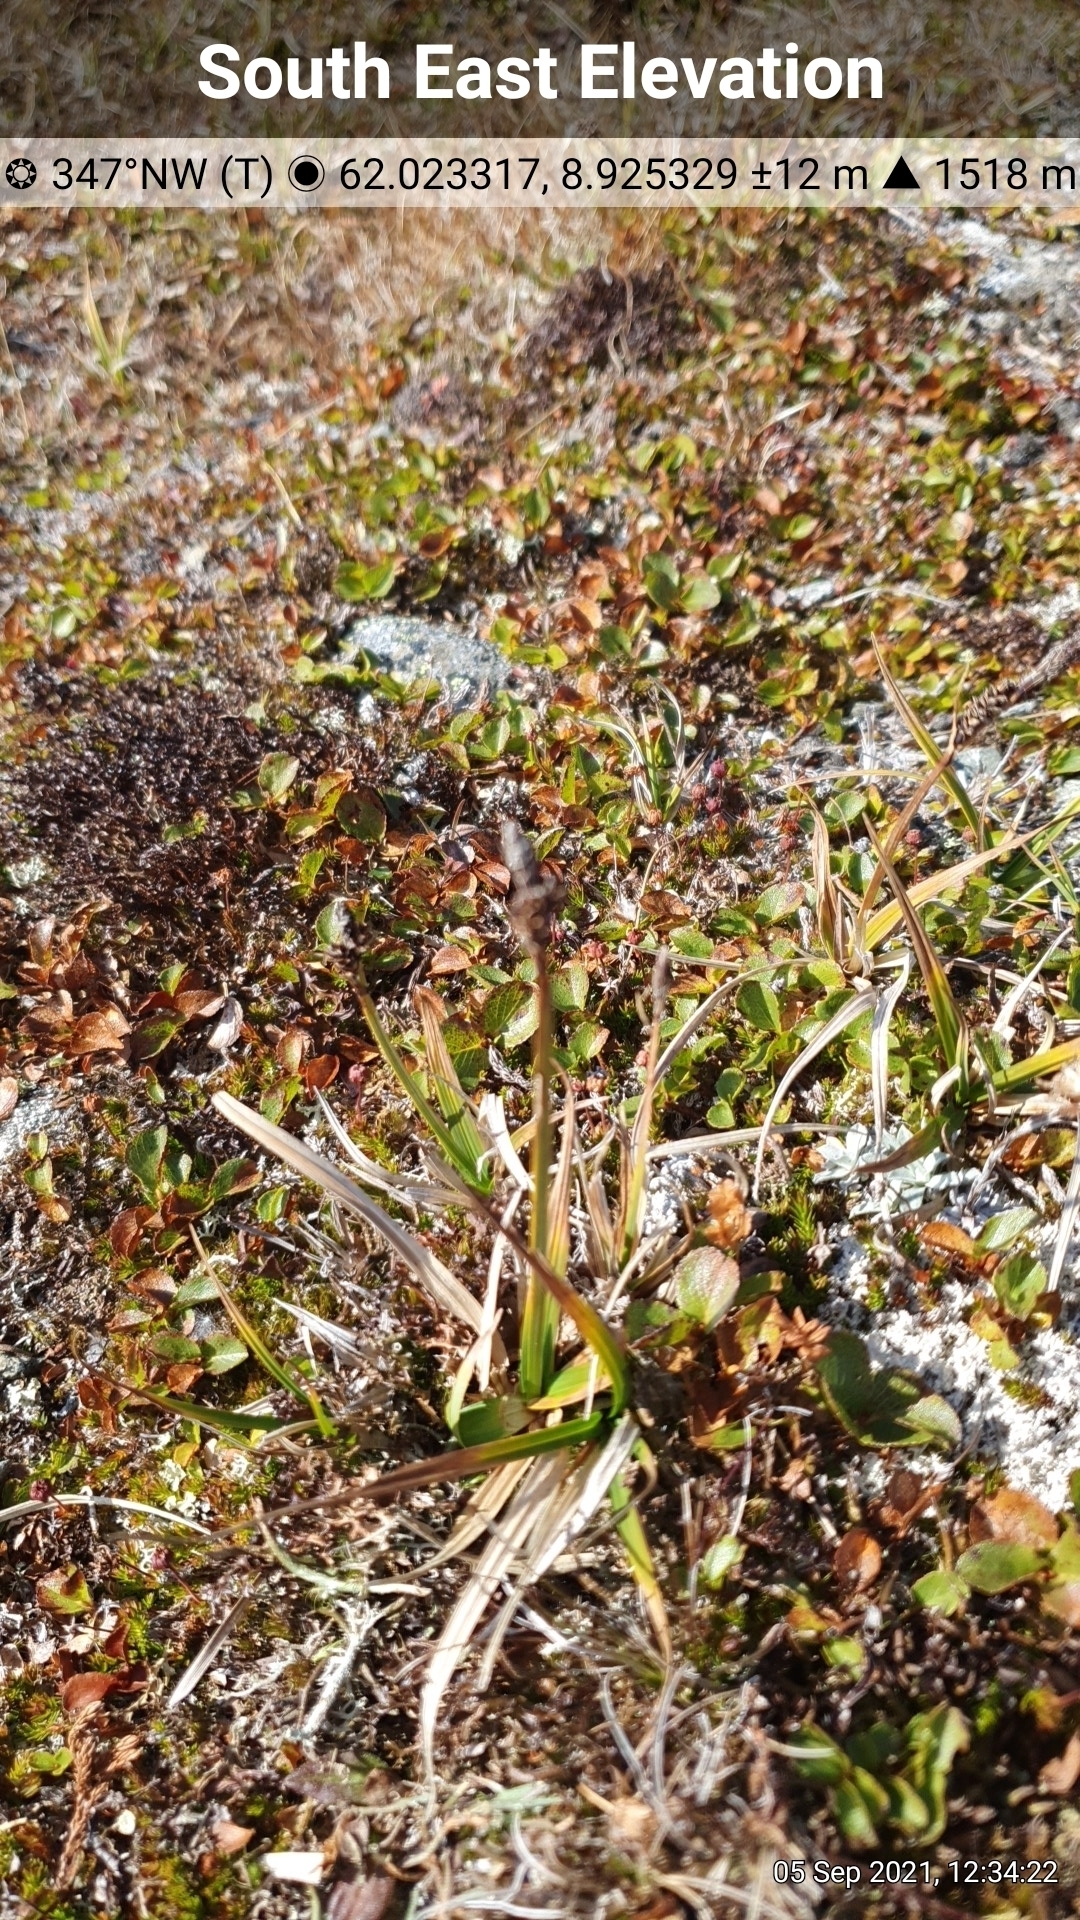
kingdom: Plantae
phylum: Tracheophyta
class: Liliopsida
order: Poales
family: Cyperaceae
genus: Carex
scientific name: Carex bigelowii
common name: Stiff sedge
